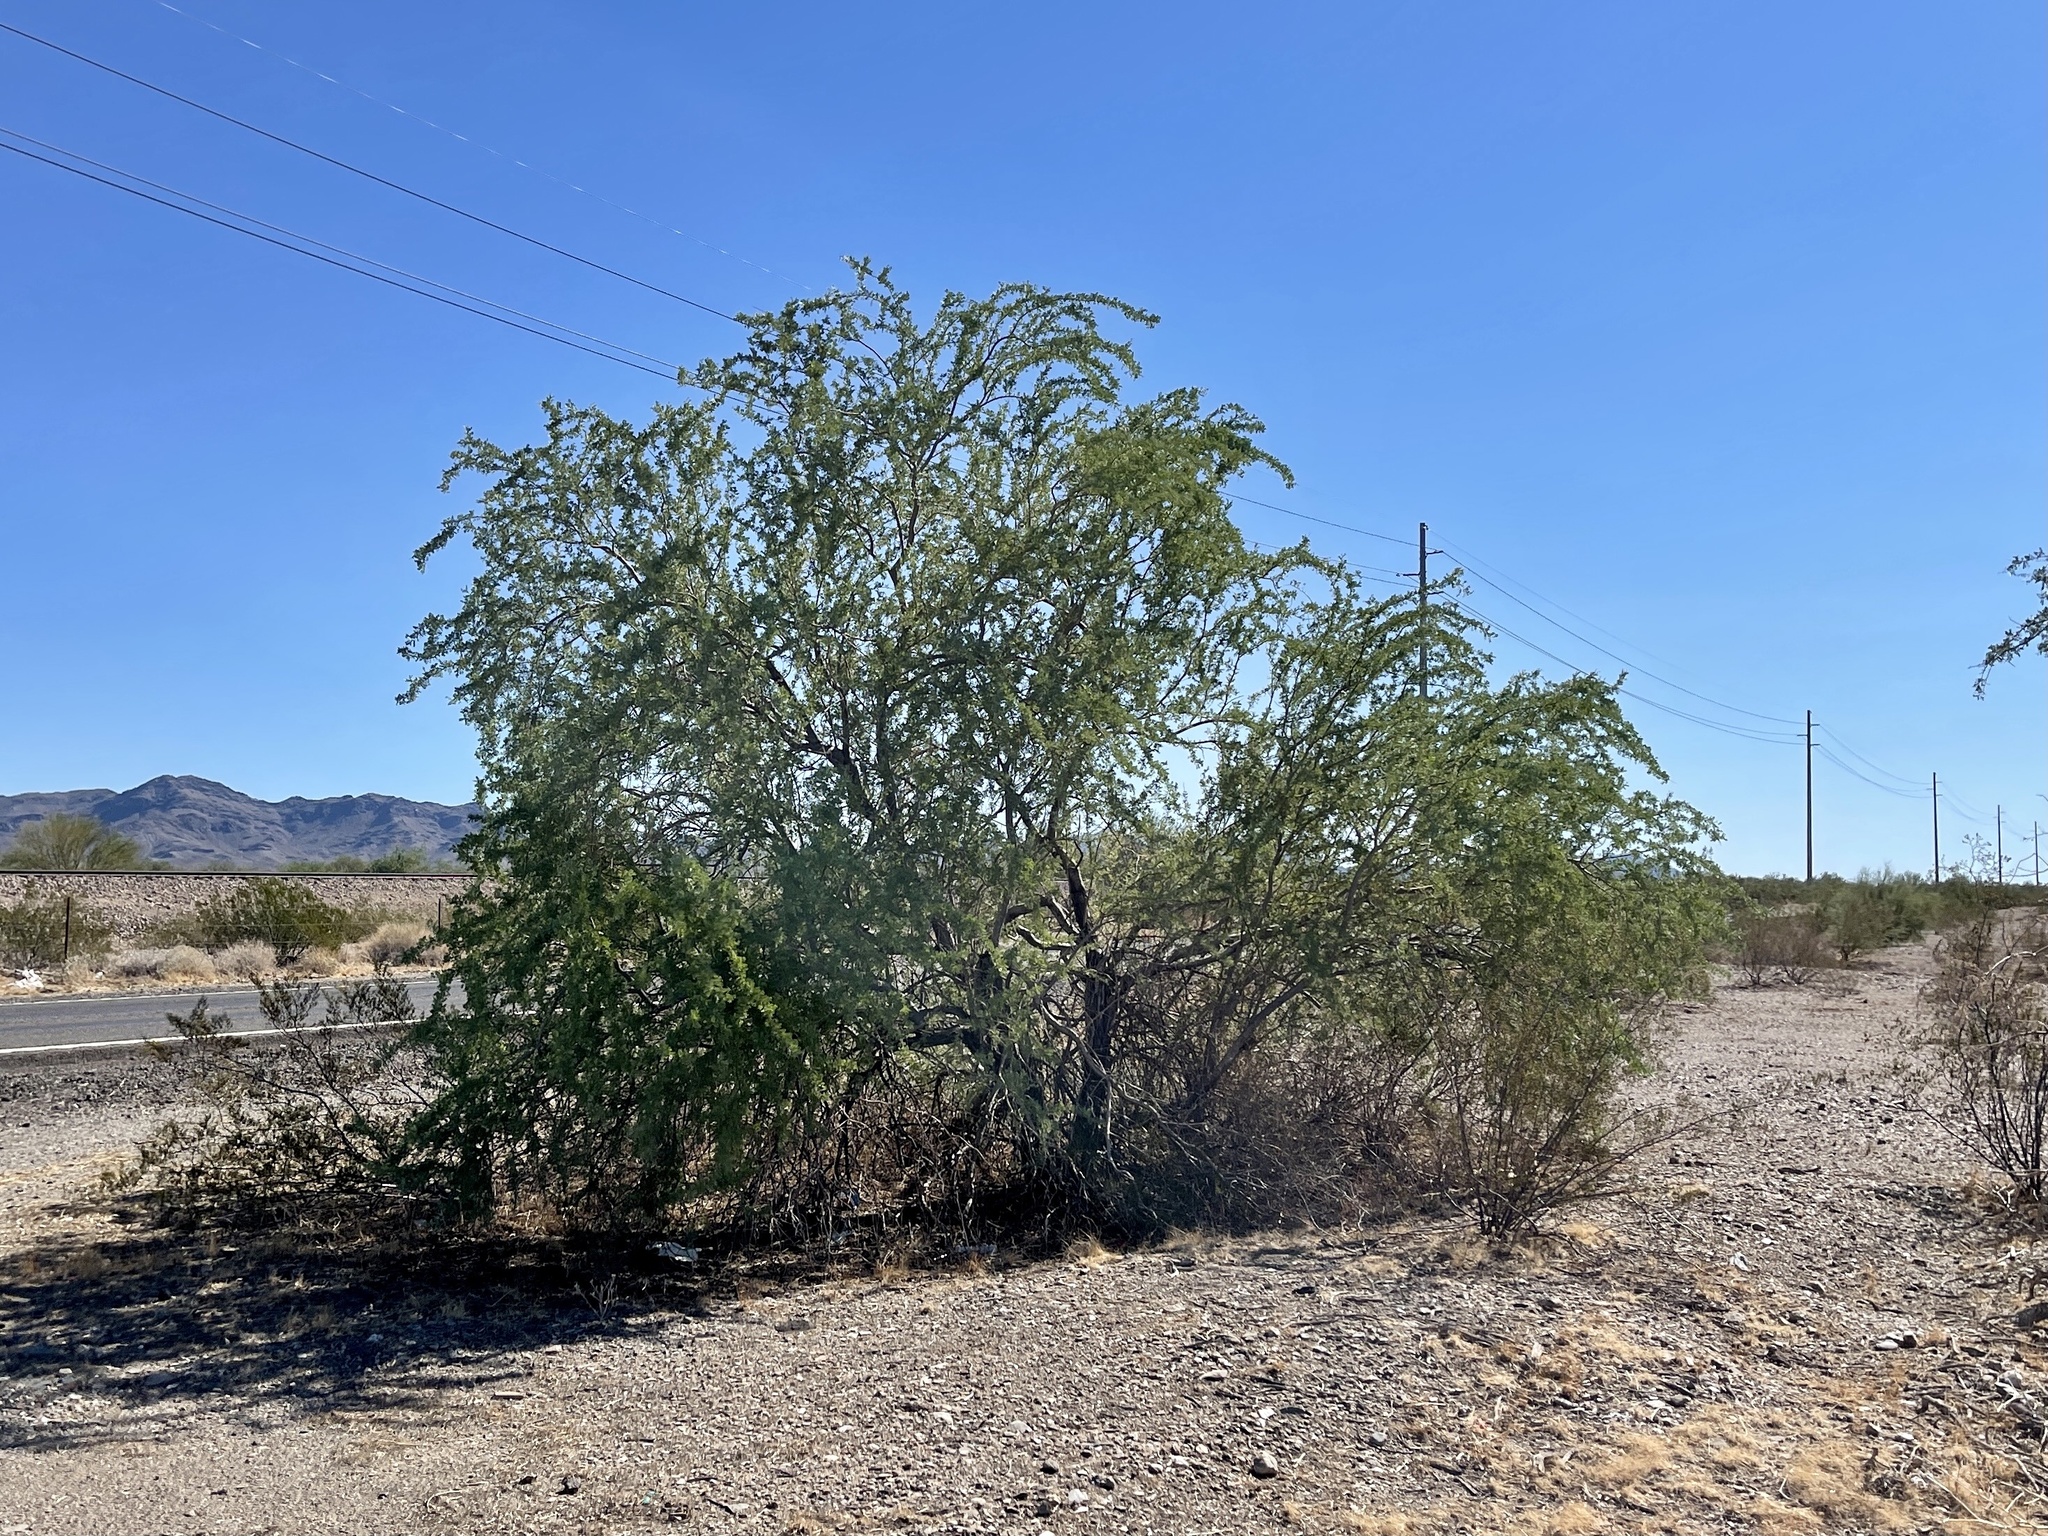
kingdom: Plantae
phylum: Tracheophyta
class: Magnoliopsida
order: Fabales
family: Fabaceae
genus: Olneya
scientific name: Olneya tesota
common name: Desert ironwood
